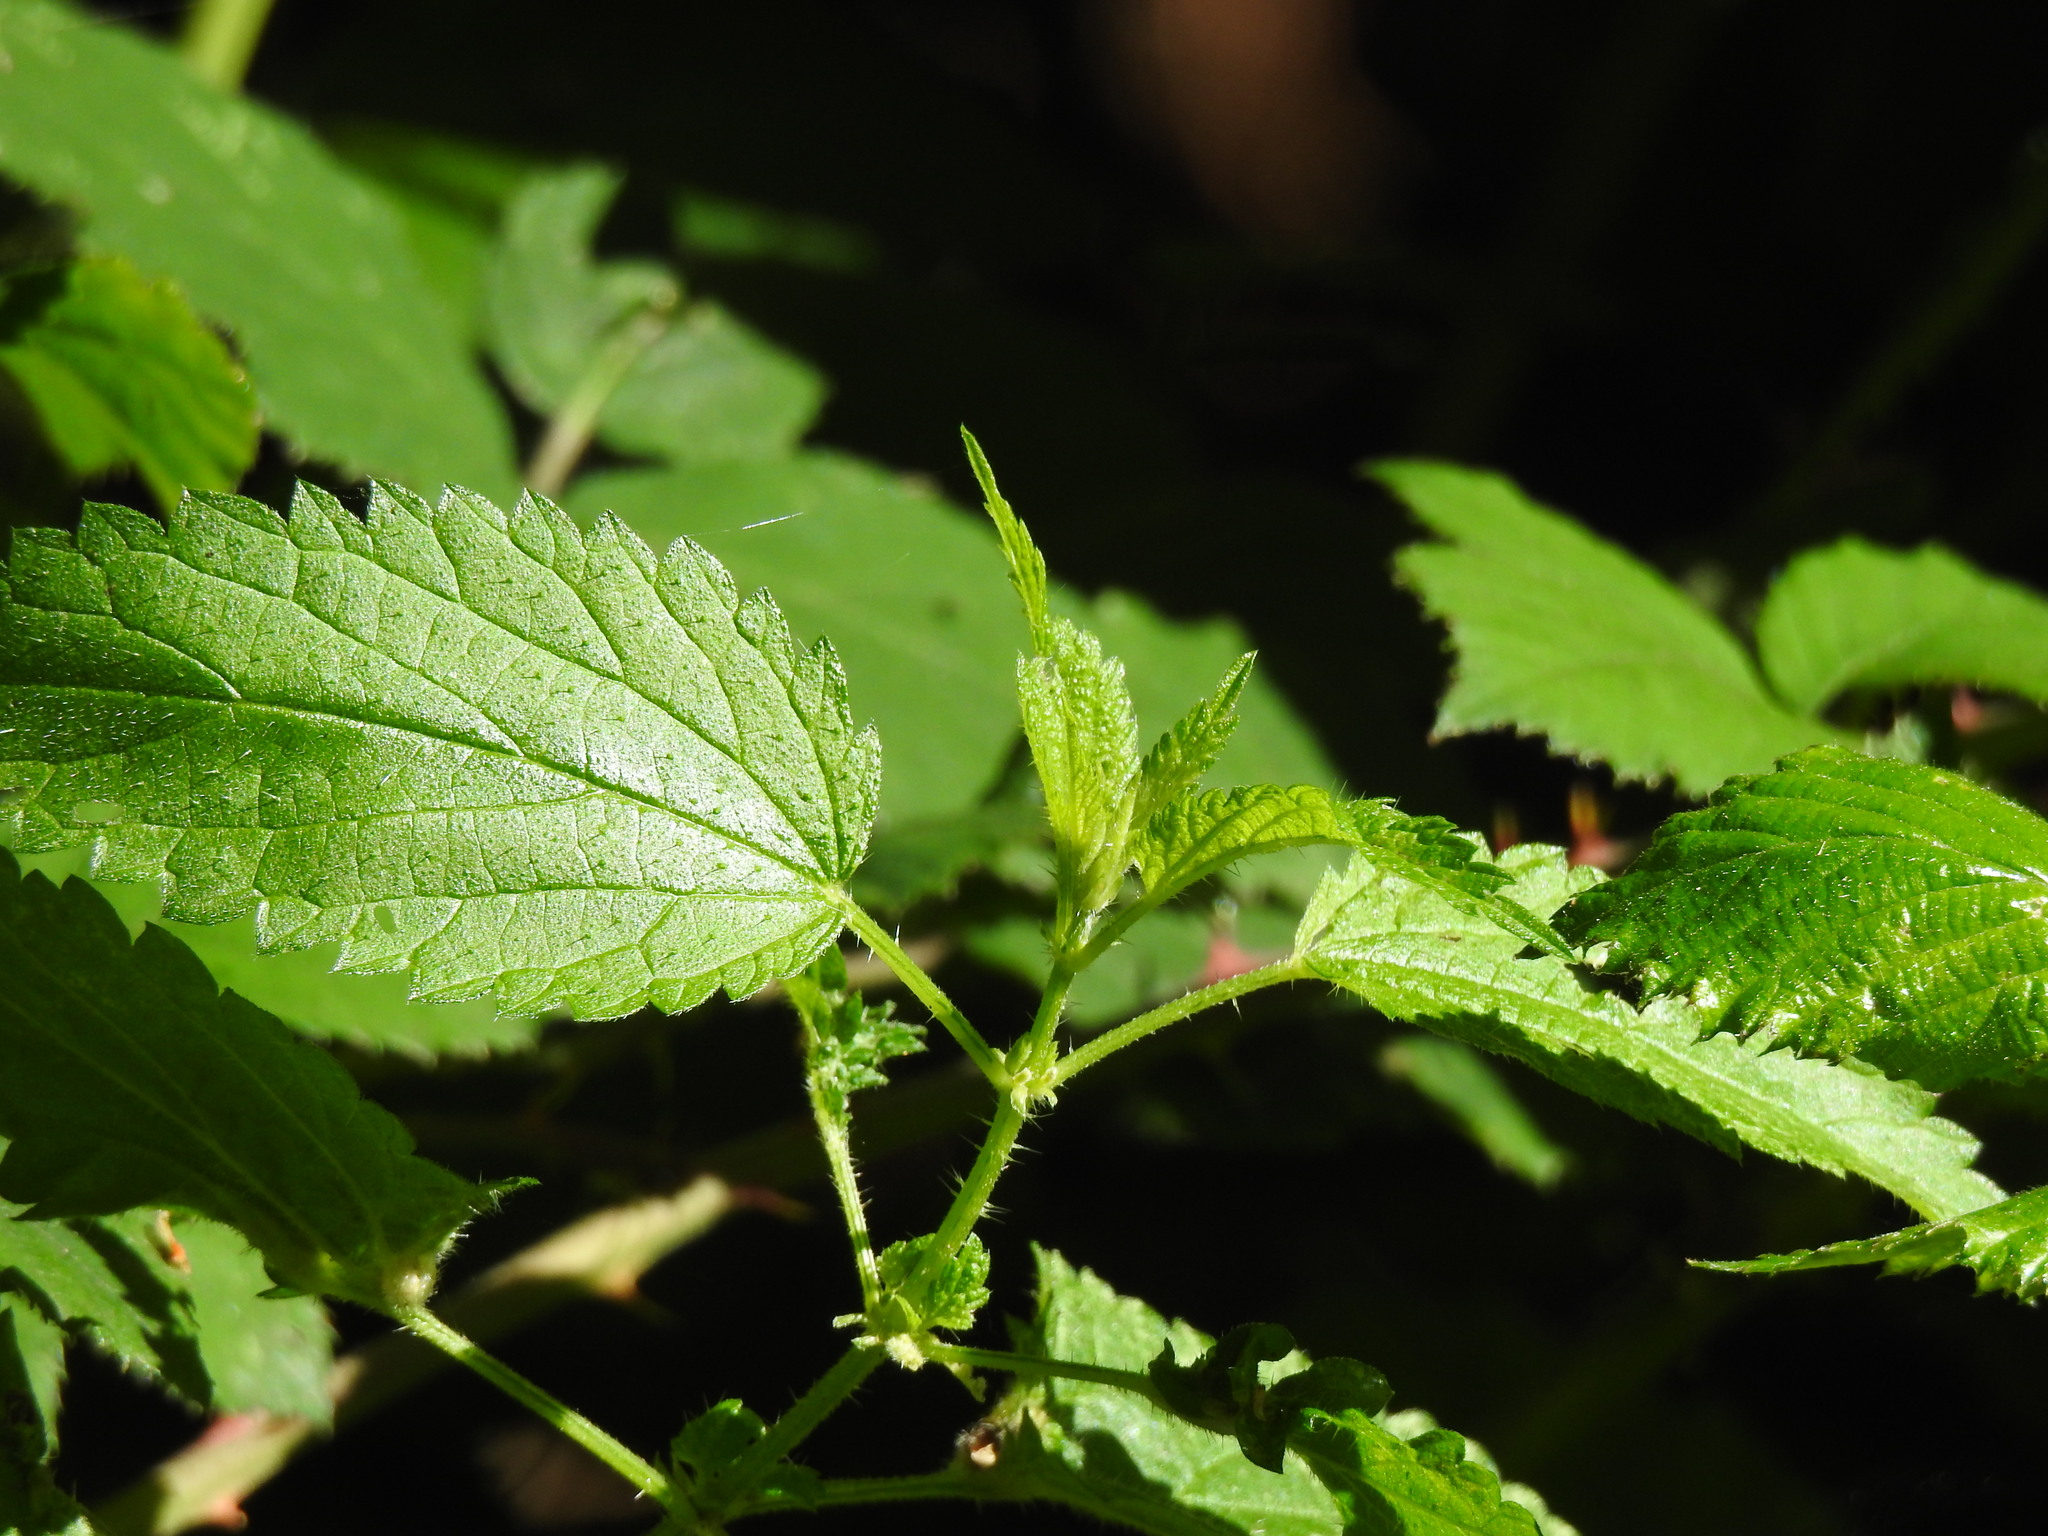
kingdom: Plantae
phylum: Tracheophyta
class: Magnoliopsida
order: Rosales
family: Urticaceae
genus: Urtica
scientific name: Urtica dioica
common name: Common nettle
